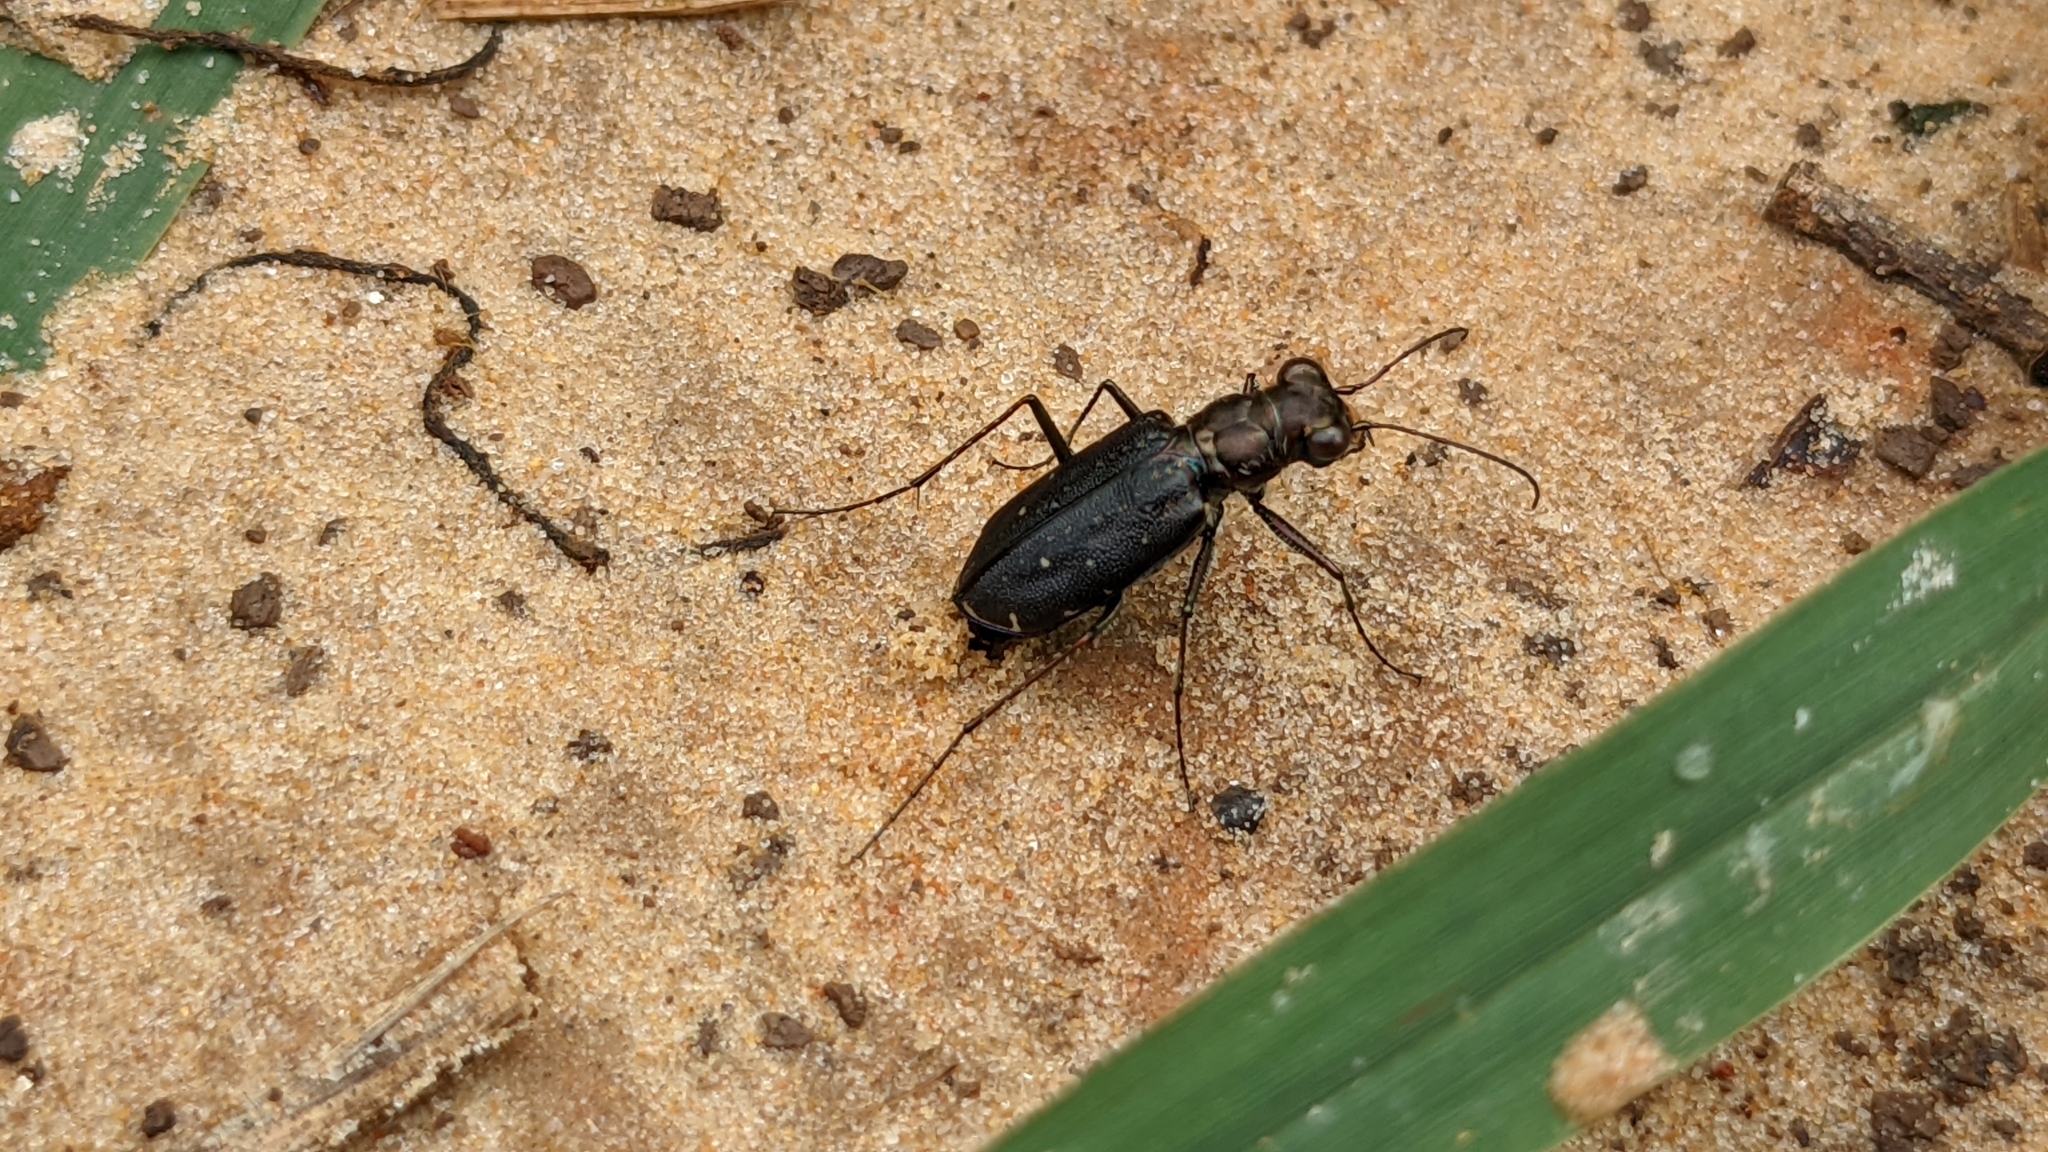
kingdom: Animalia
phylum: Arthropoda
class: Insecta
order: Coleoptera
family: Carabidae
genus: Cicindela
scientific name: Cicindela punctulata
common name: Punctured tiger beetle
